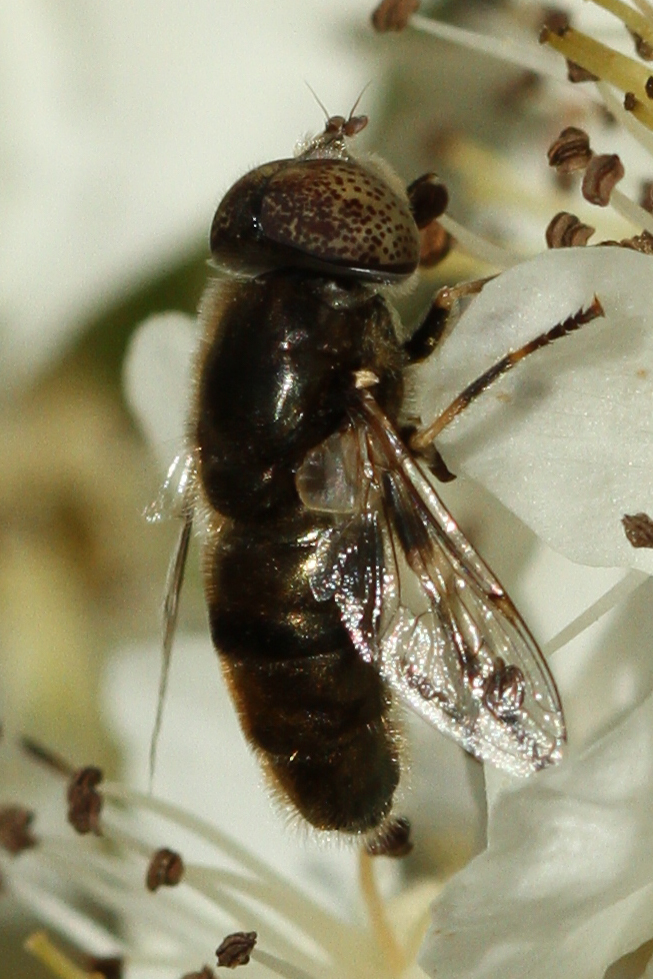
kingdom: Animalia
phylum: Arthropoda
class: Insecta
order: Diptera
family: Syrphidae
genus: Eristalinus
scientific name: Eristalinus aeneus
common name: Syrphid fly
